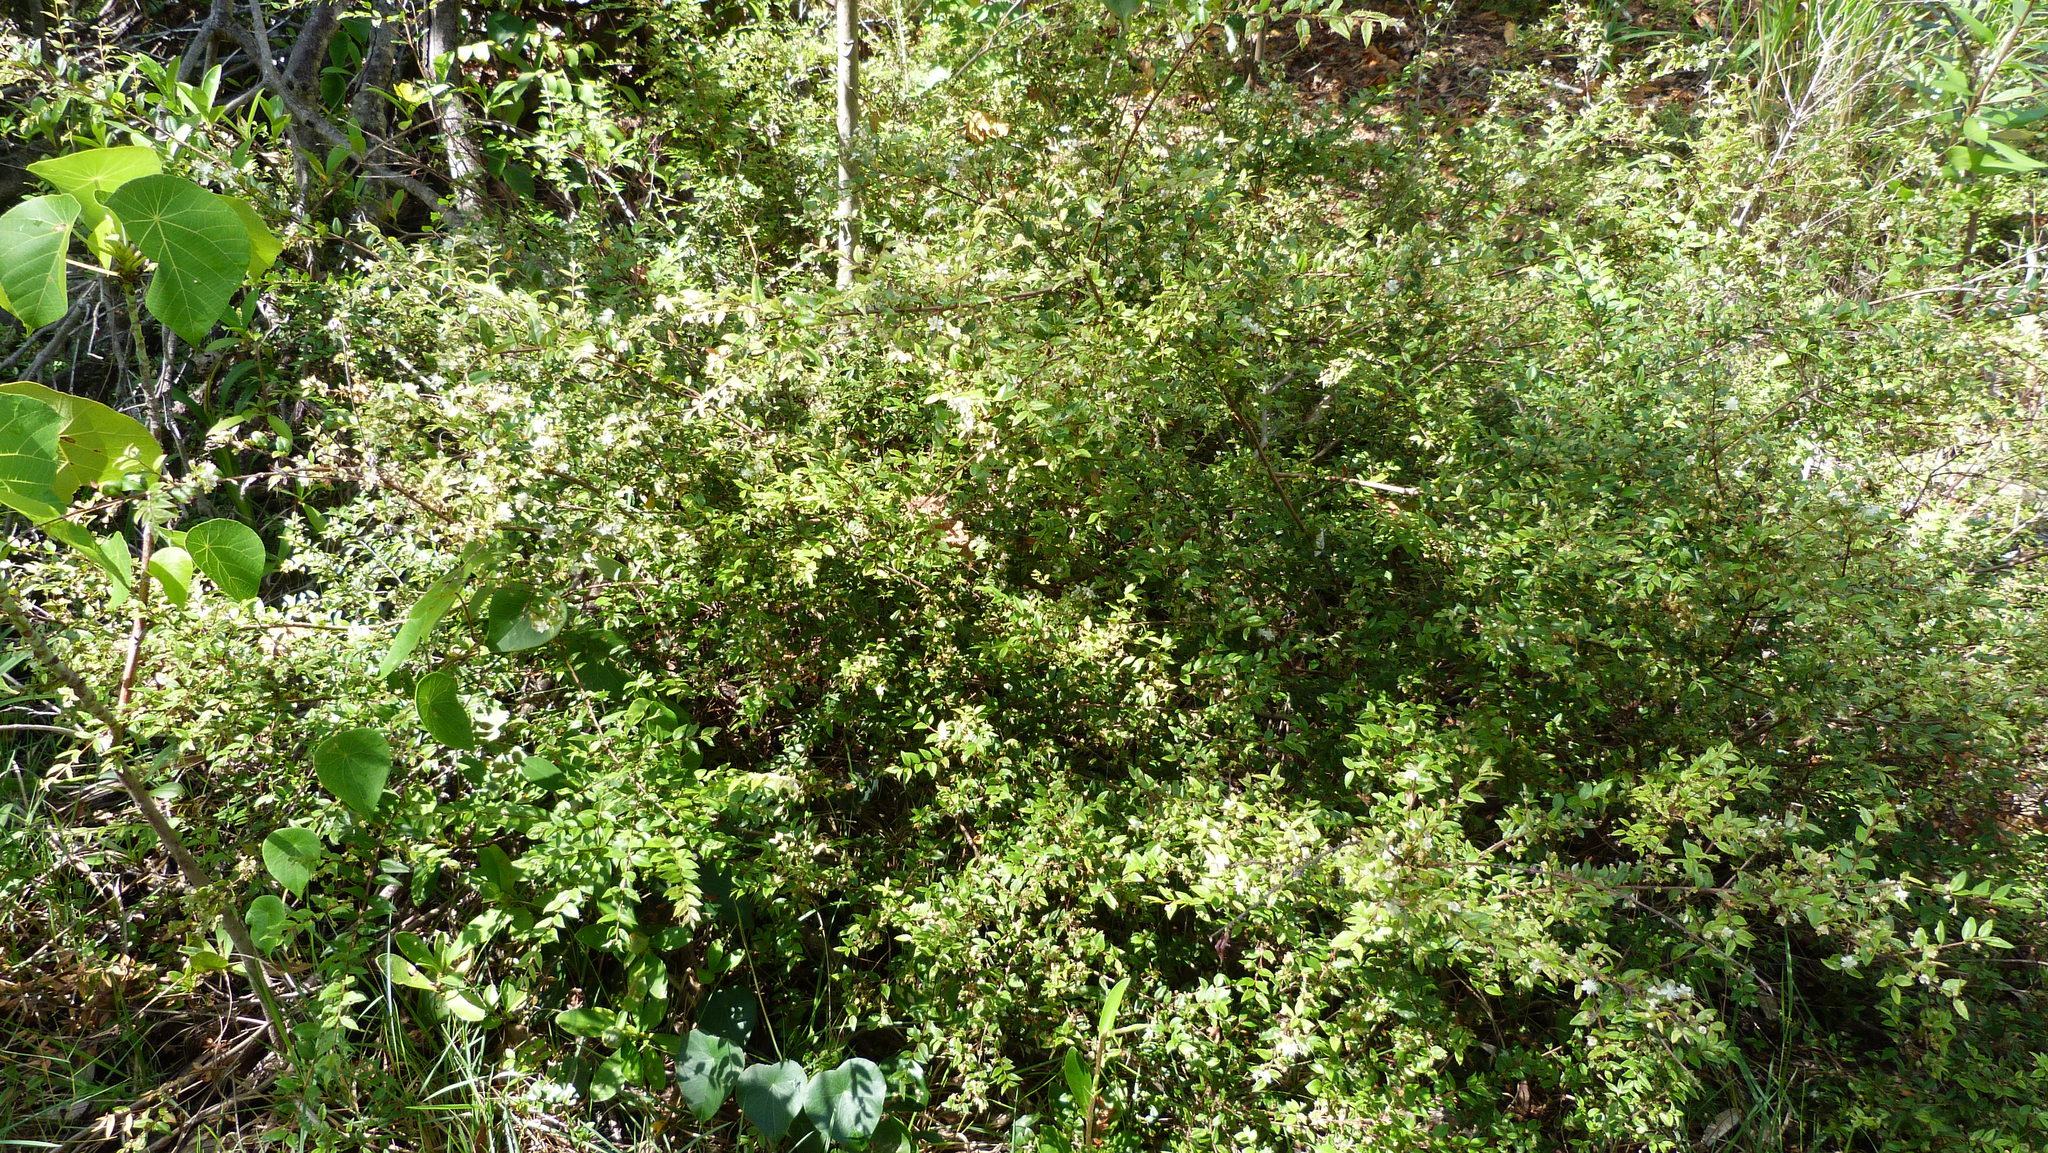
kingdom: Plantae
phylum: Tracheophyta
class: Magnoliopsida
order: Myrtales
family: Myrtaceae
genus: Austromyrtus
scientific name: Austromyrtus dulcis
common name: Migden-berry
